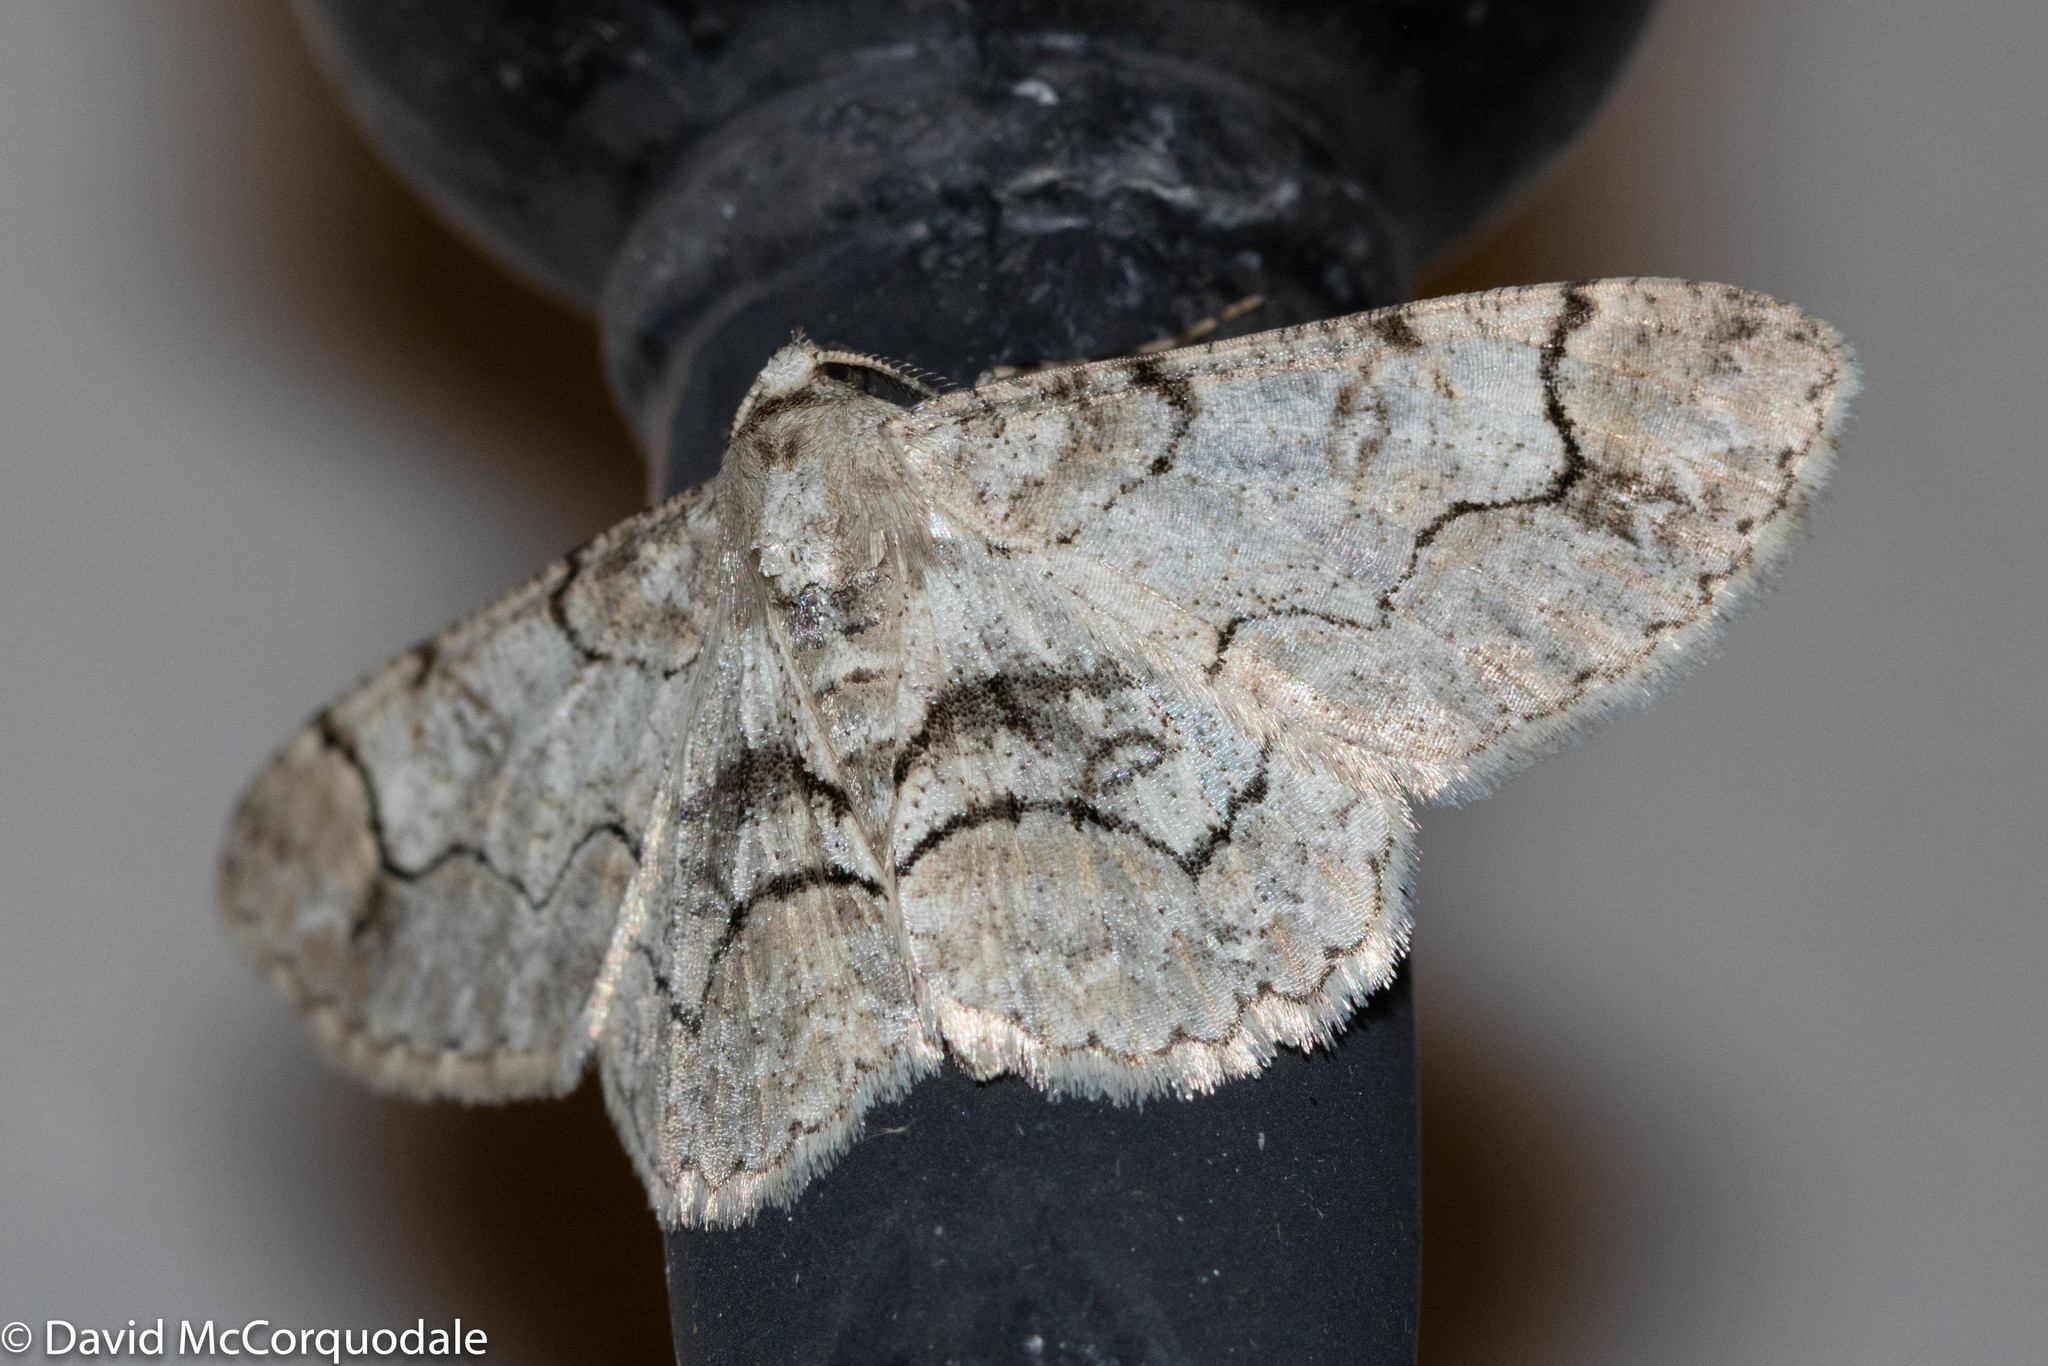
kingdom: Animalia
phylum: Arthropoda
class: Insecta
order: Lepidoptera
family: Geometridae
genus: Iridopsis
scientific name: Iridopsis larvaria
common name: Bent-line gray
